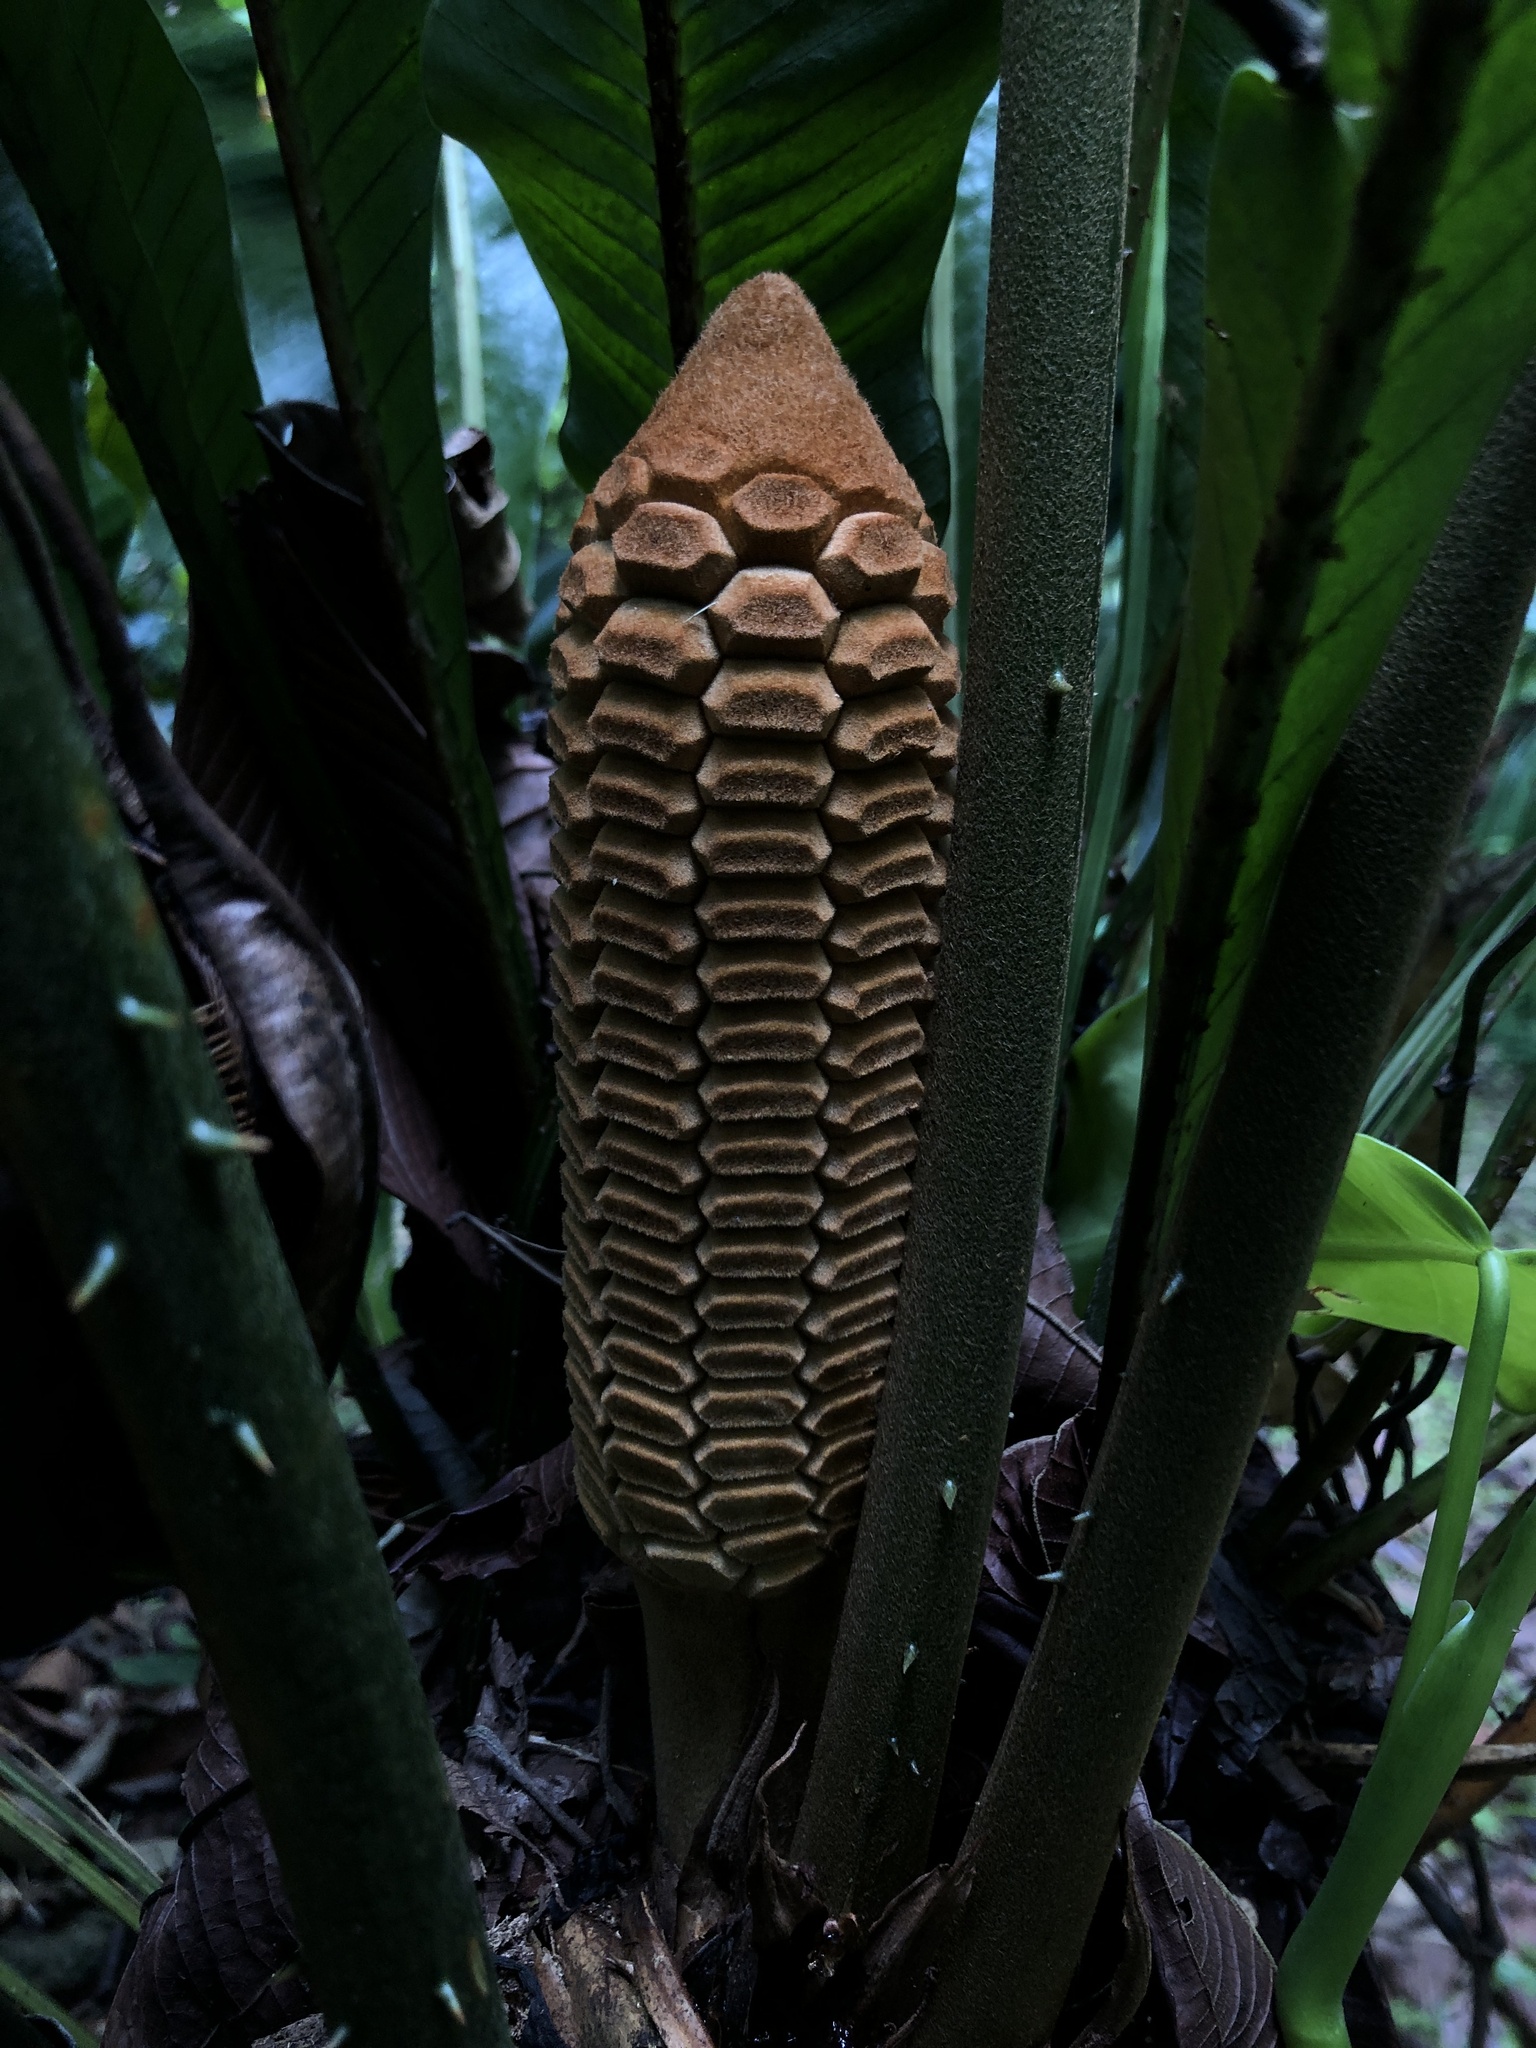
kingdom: Plantae
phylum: Tracheophyta
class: Cycadopsida
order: Cycadales
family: Zamiaceae
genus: Zamia
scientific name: Zamia nesophila
